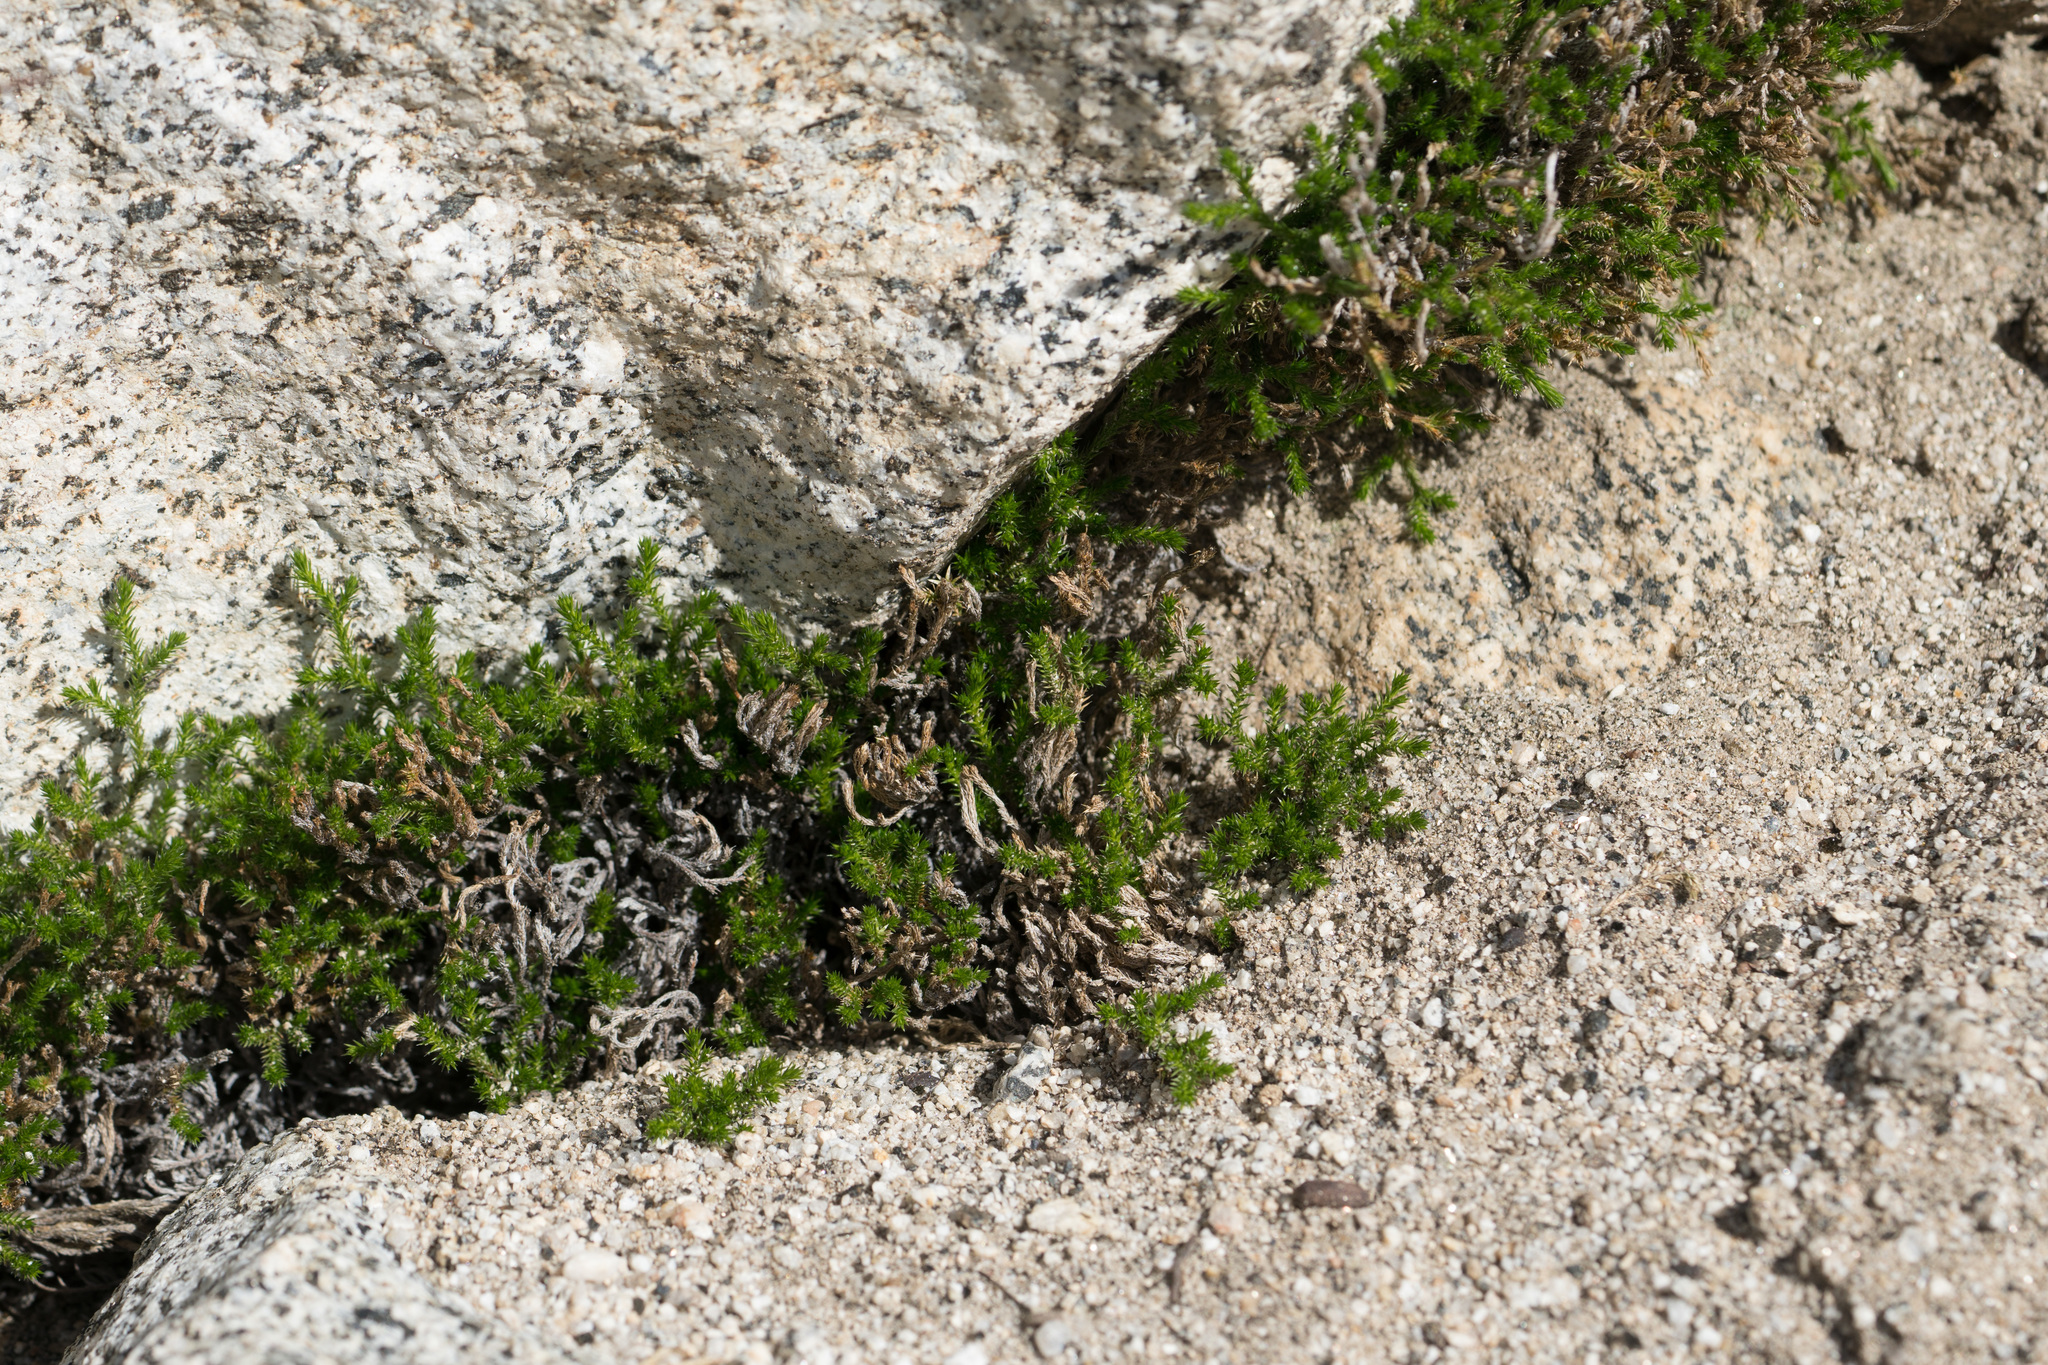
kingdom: Plantae
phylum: Tracheophyta
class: Lycopodiopsida
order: Selaginellales
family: Selaginellaceae
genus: Selaginella
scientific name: Selaginella bigelovii
